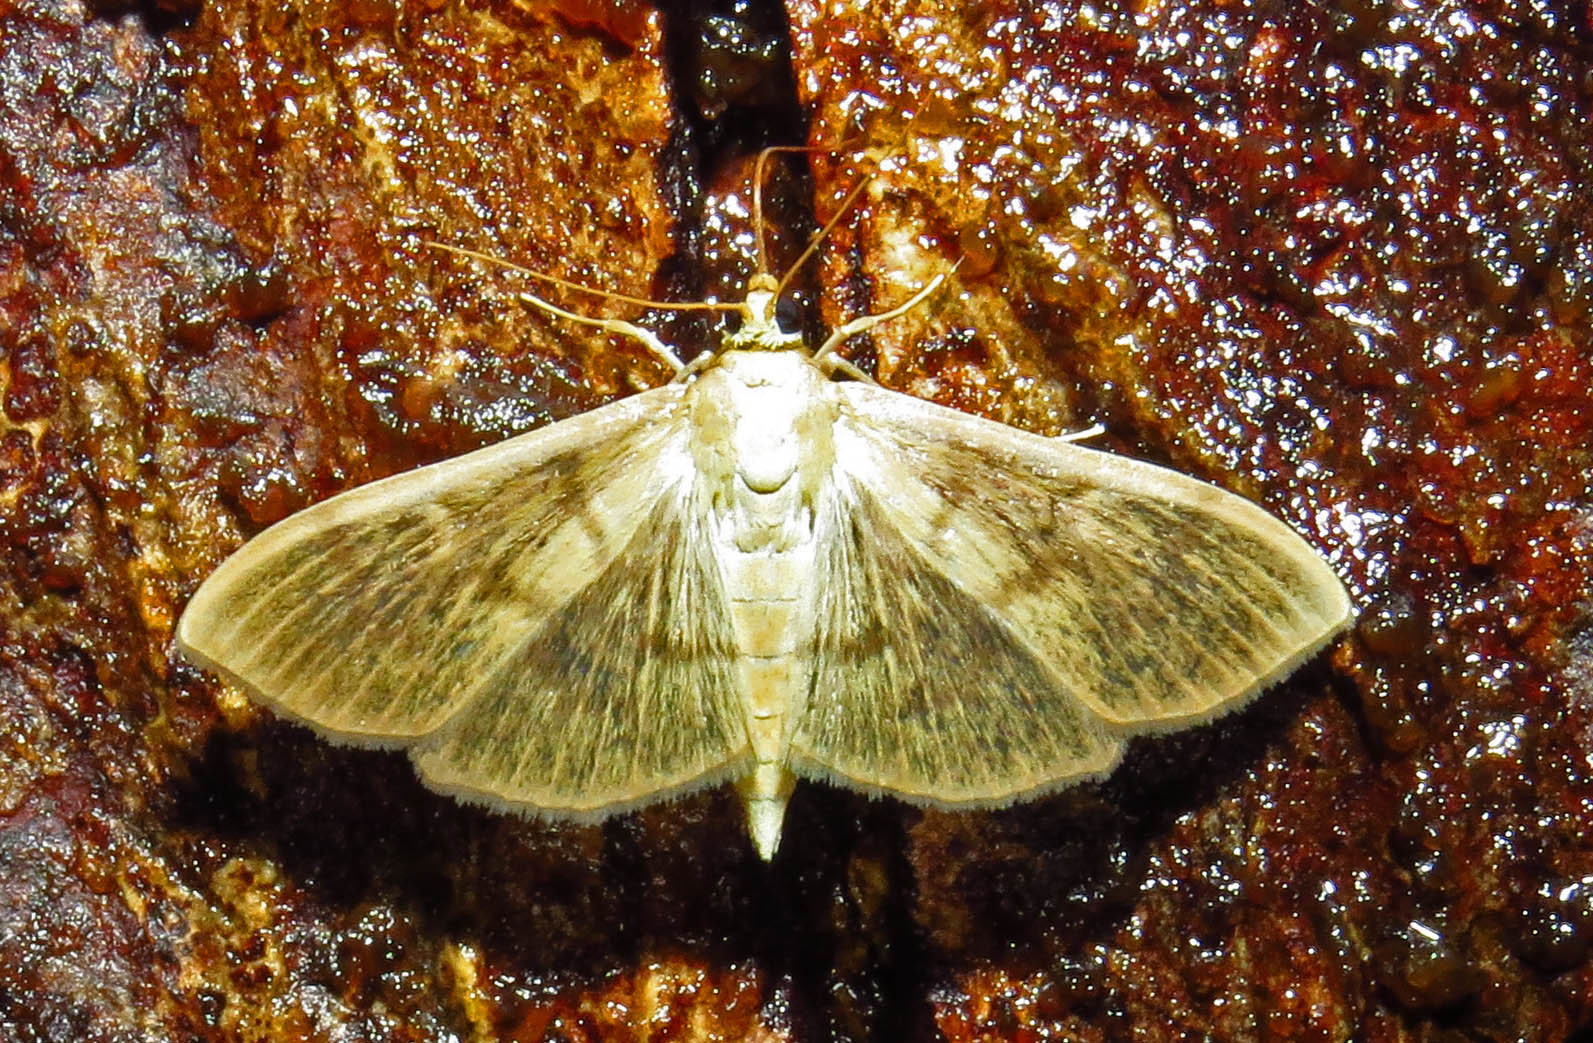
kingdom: Animalia
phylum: Arthropoda
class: Insecta
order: Lepidoptera
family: Crambidae
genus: Pleuroptya
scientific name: Pleuroptya silicalis
